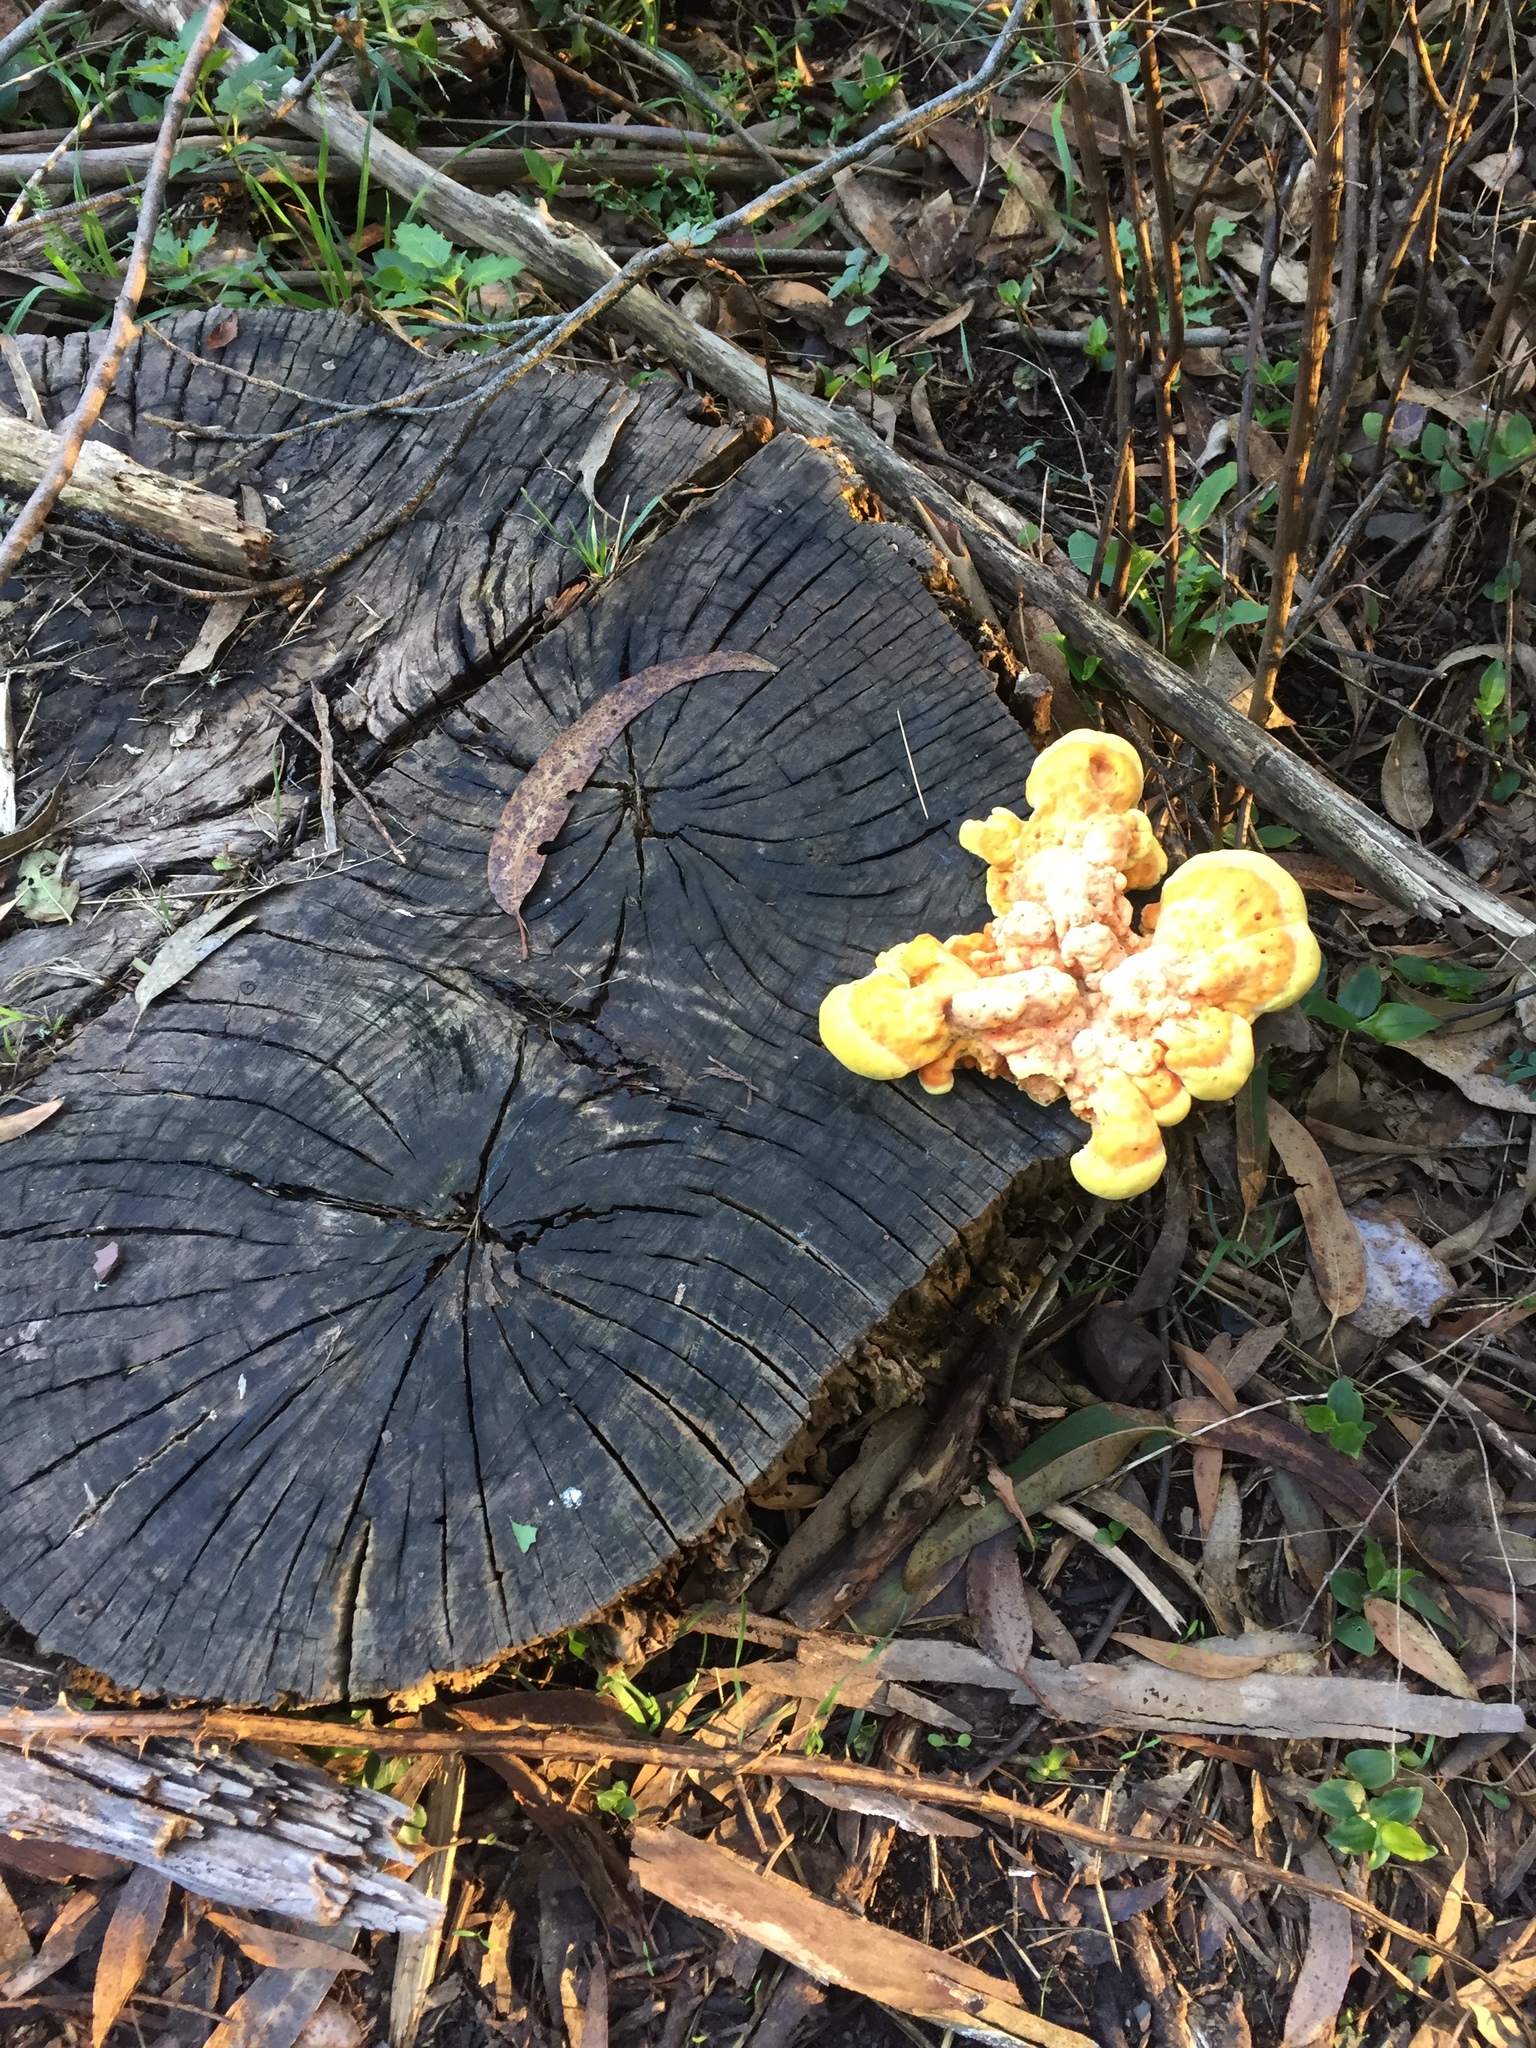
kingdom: Fungi
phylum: Basidiomycota
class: Agaricomycetes
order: Polyporales
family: Laetiporaceae
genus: Laetiporus
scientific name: Laetiporus gilbertsonii
